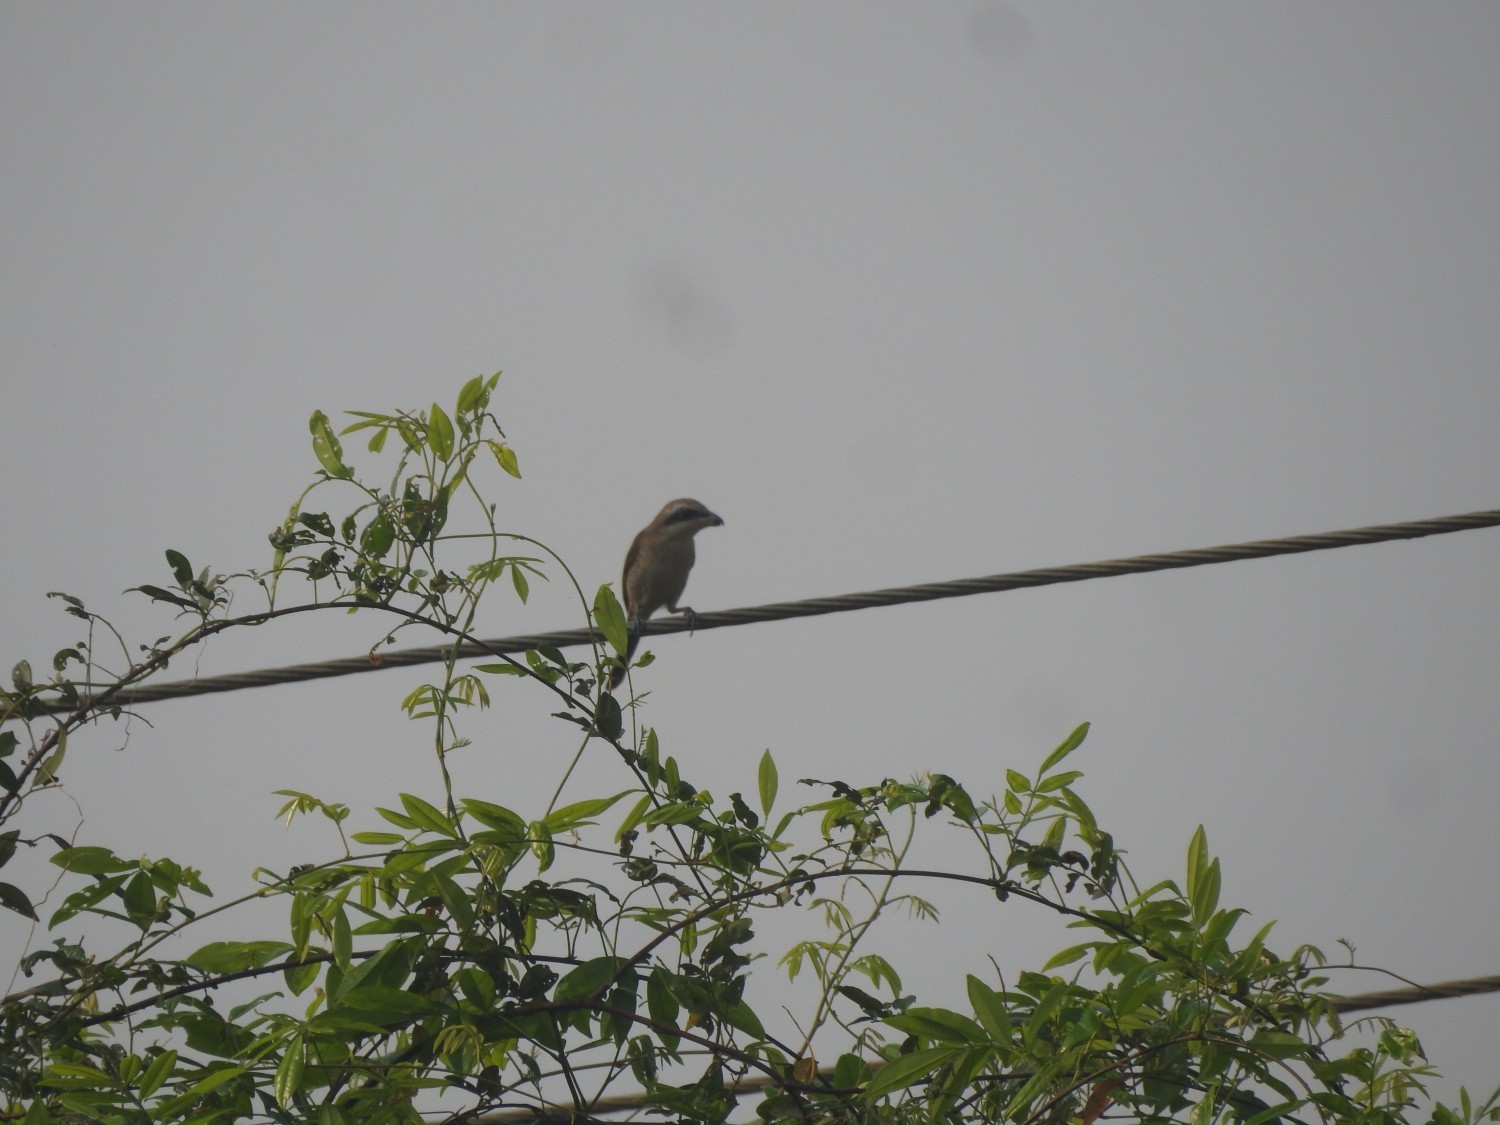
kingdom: Animalia
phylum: Chordata
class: Aves
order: Passeriformes
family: Laniidae
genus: Lanius
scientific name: Lanius cristatus
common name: Brown shrike
